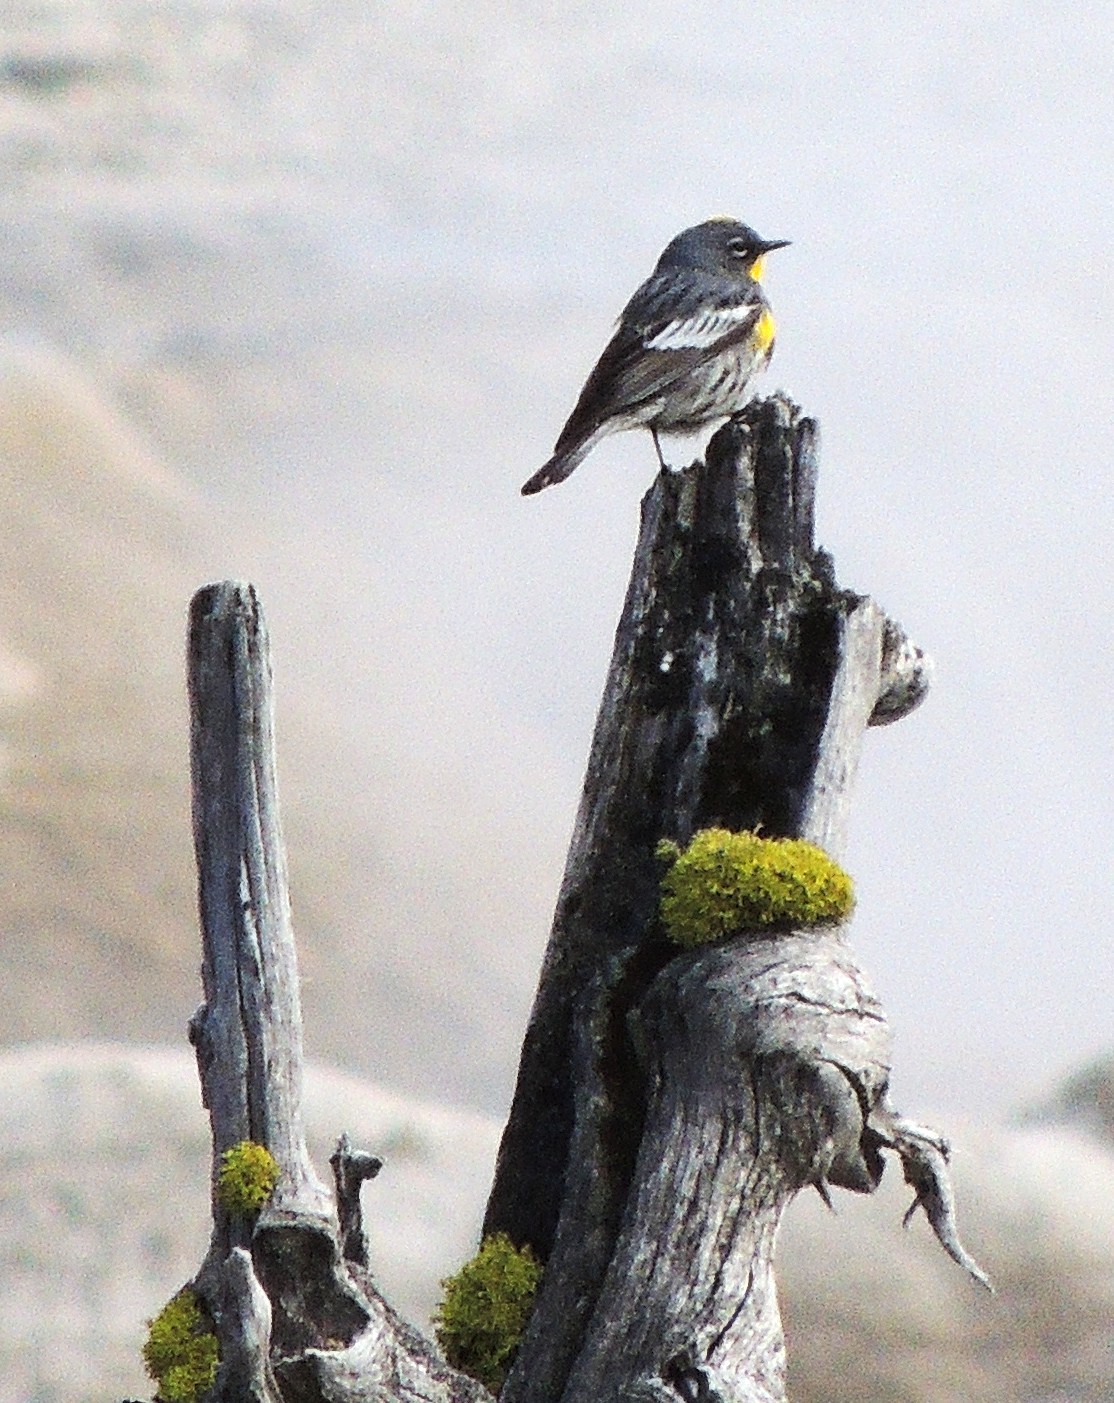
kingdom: Animalia
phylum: Chordata
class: Aves
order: Passeriformes
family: Parulidae
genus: Setophaga
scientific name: Setophaga coronata
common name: Myrtle warbler
